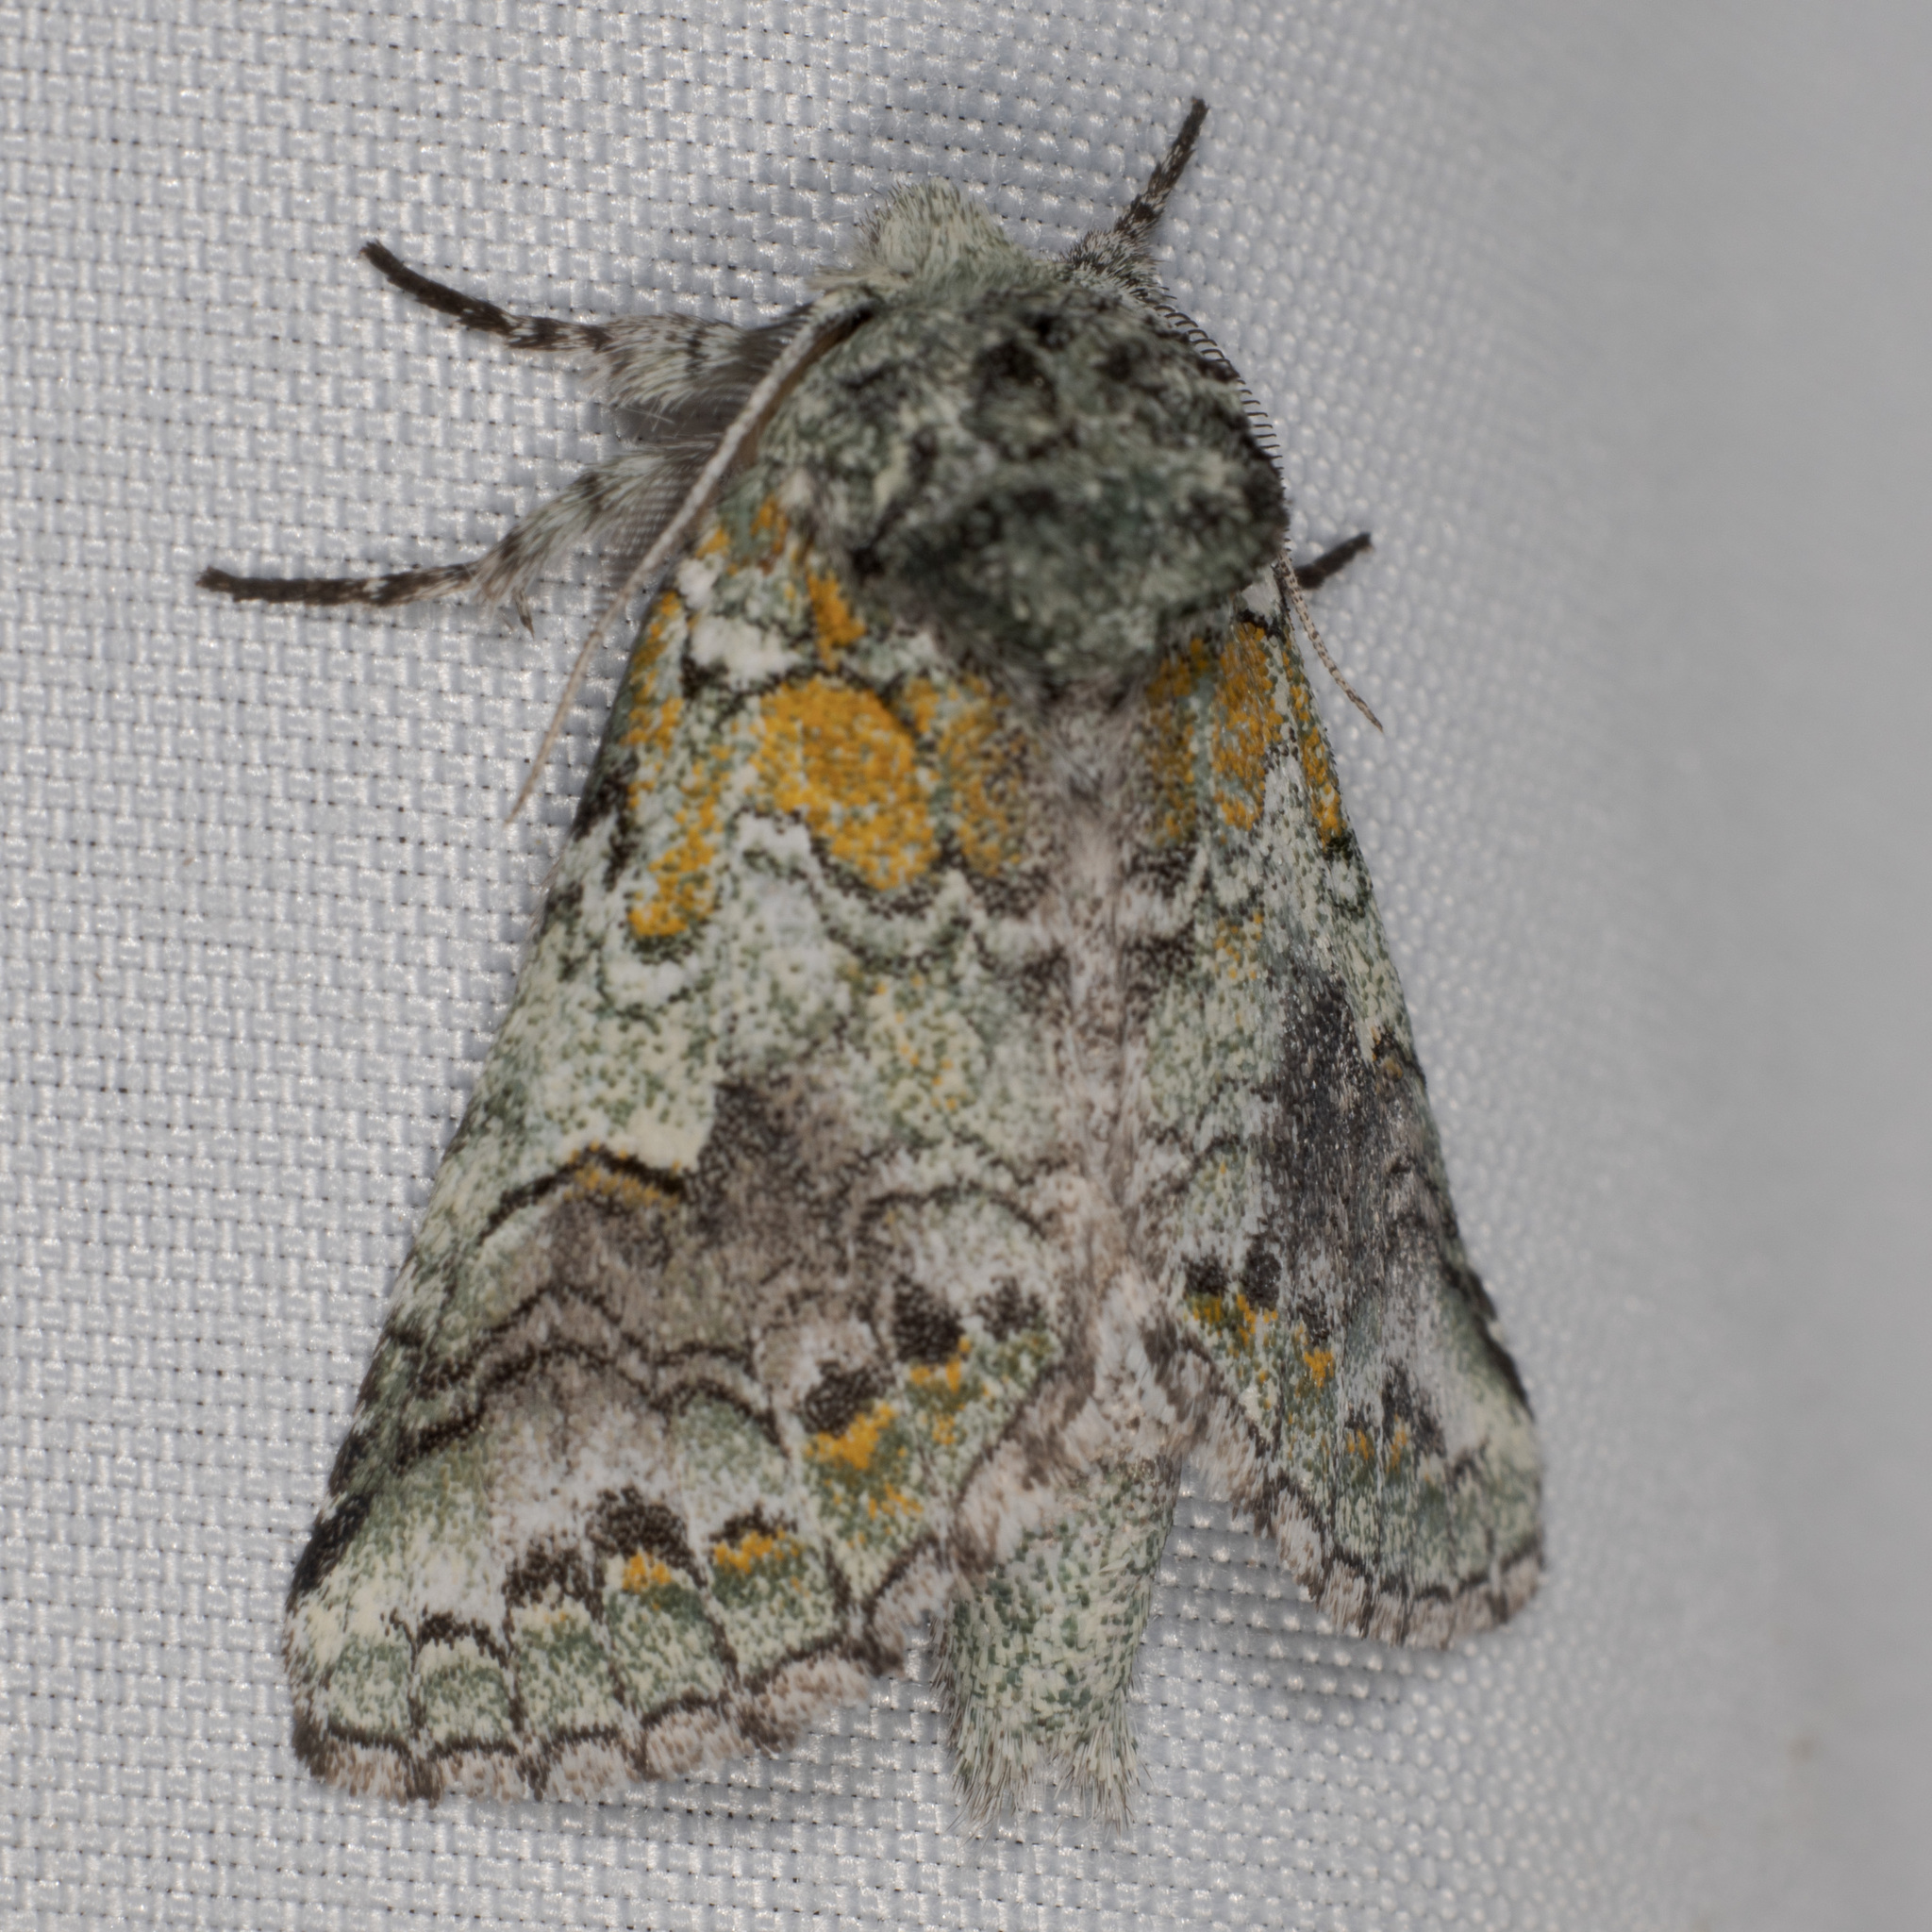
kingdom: Animalia
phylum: Arthropoda
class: Insecta
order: Lepidoptera
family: Notodontidae
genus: Litodonta
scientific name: Litodonta hydromeli
